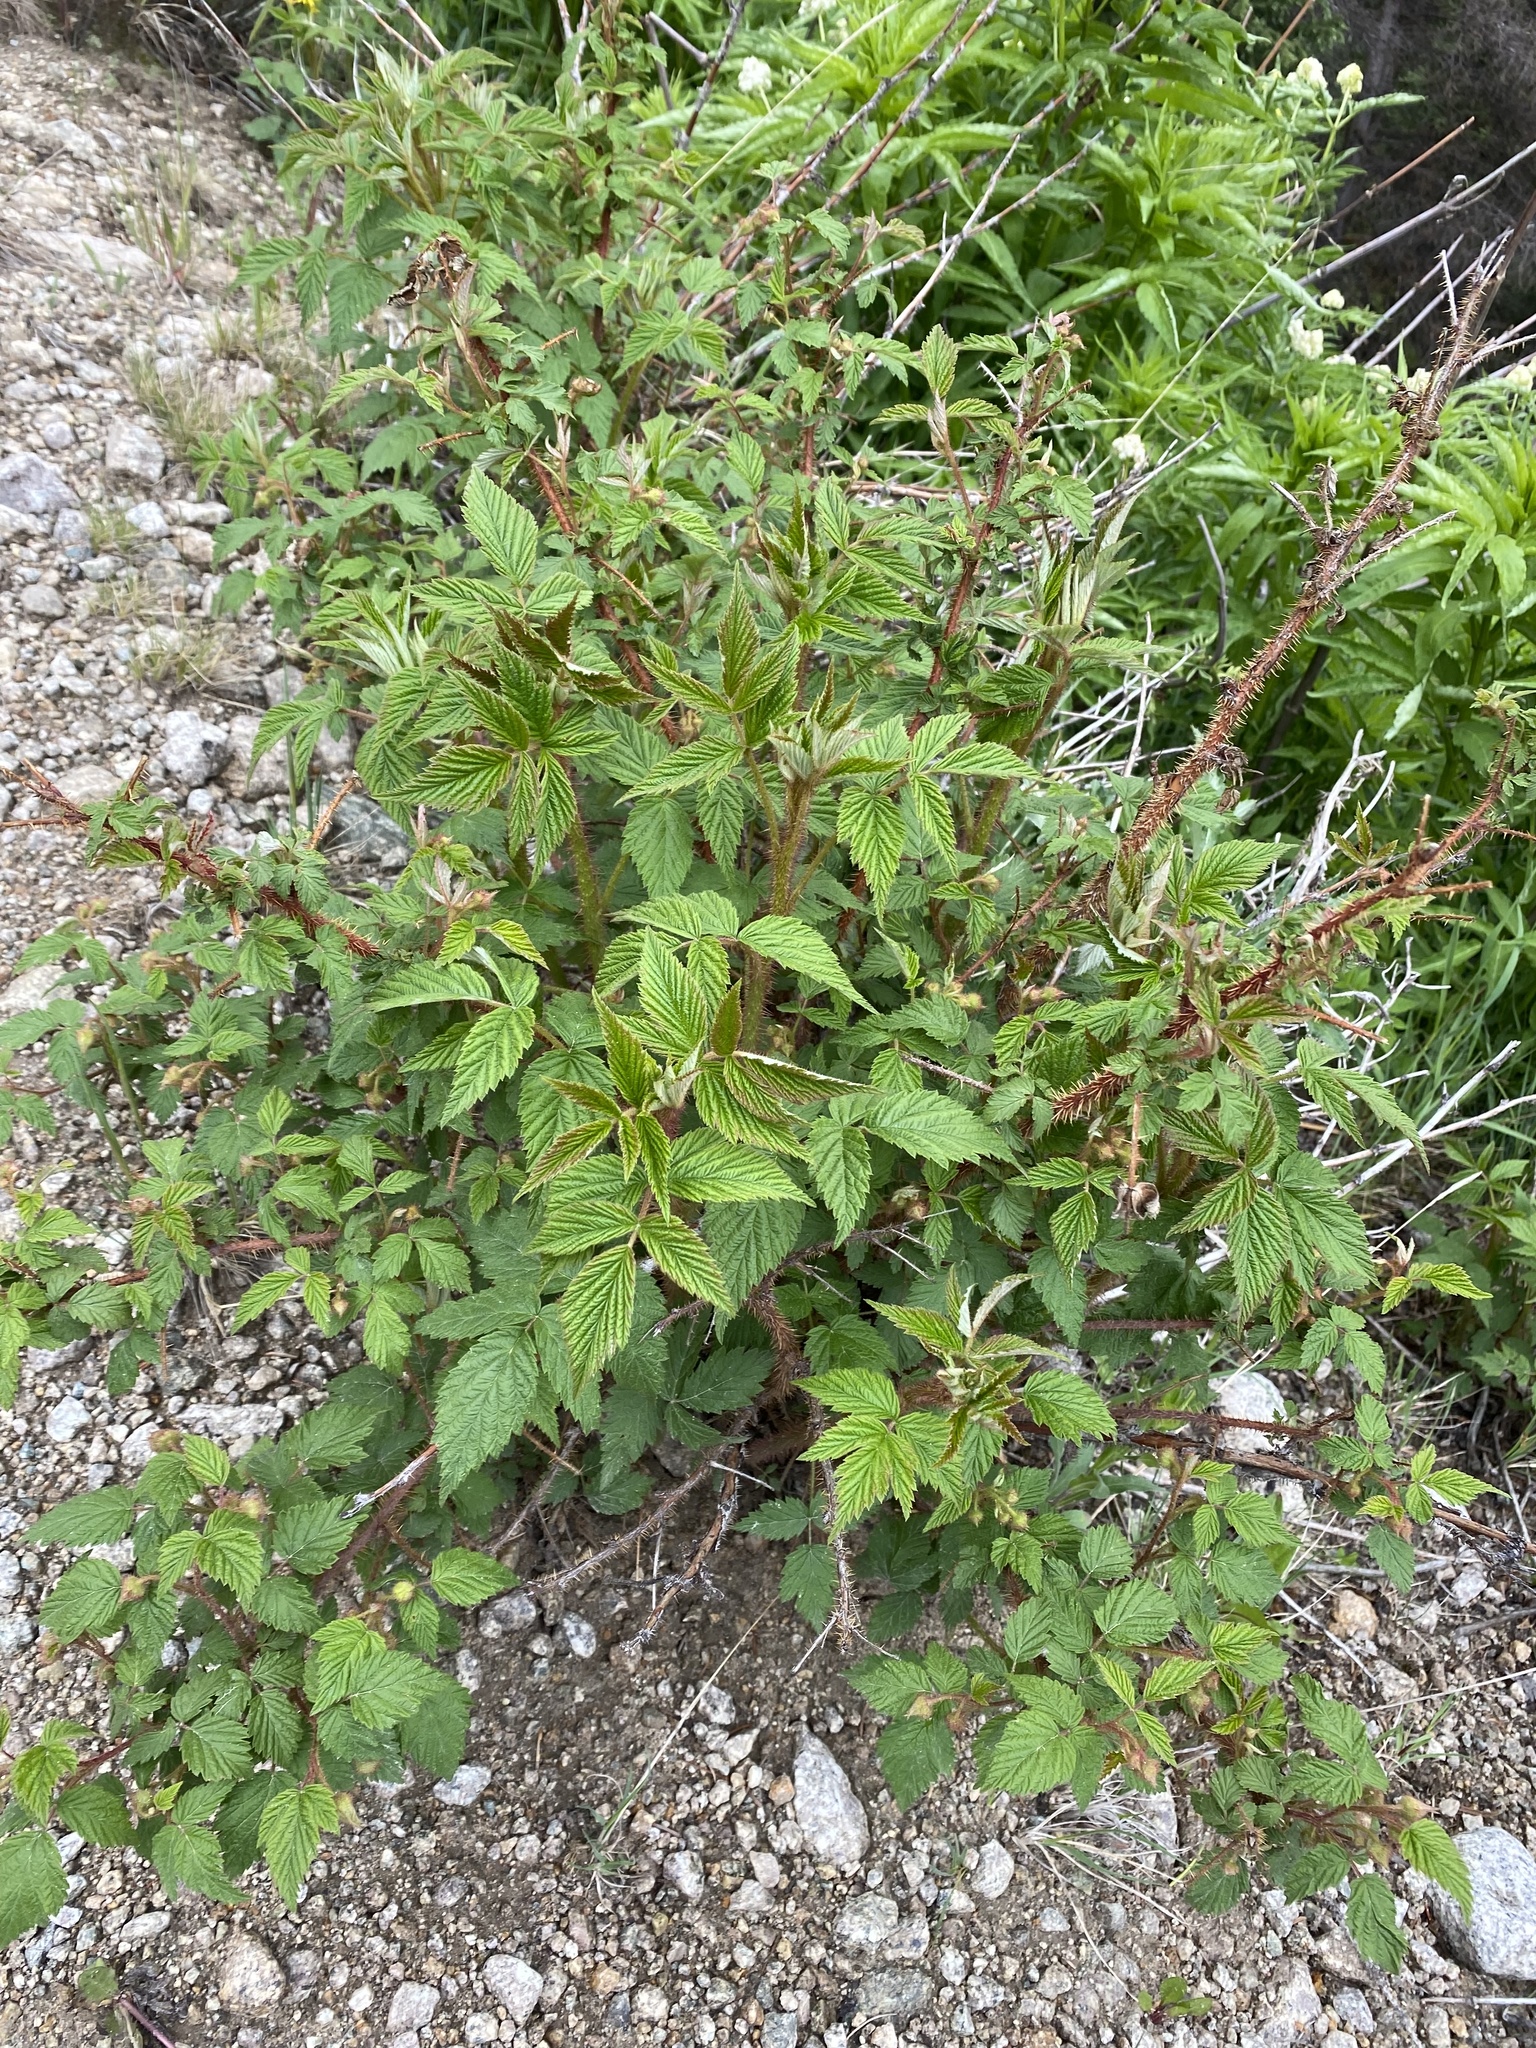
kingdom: Plantae
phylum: Tracheophyta
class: Magnoliopsida
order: Rosales
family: Rosaceae
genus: Rubus
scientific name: Rubus idaeus
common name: Raspberry
